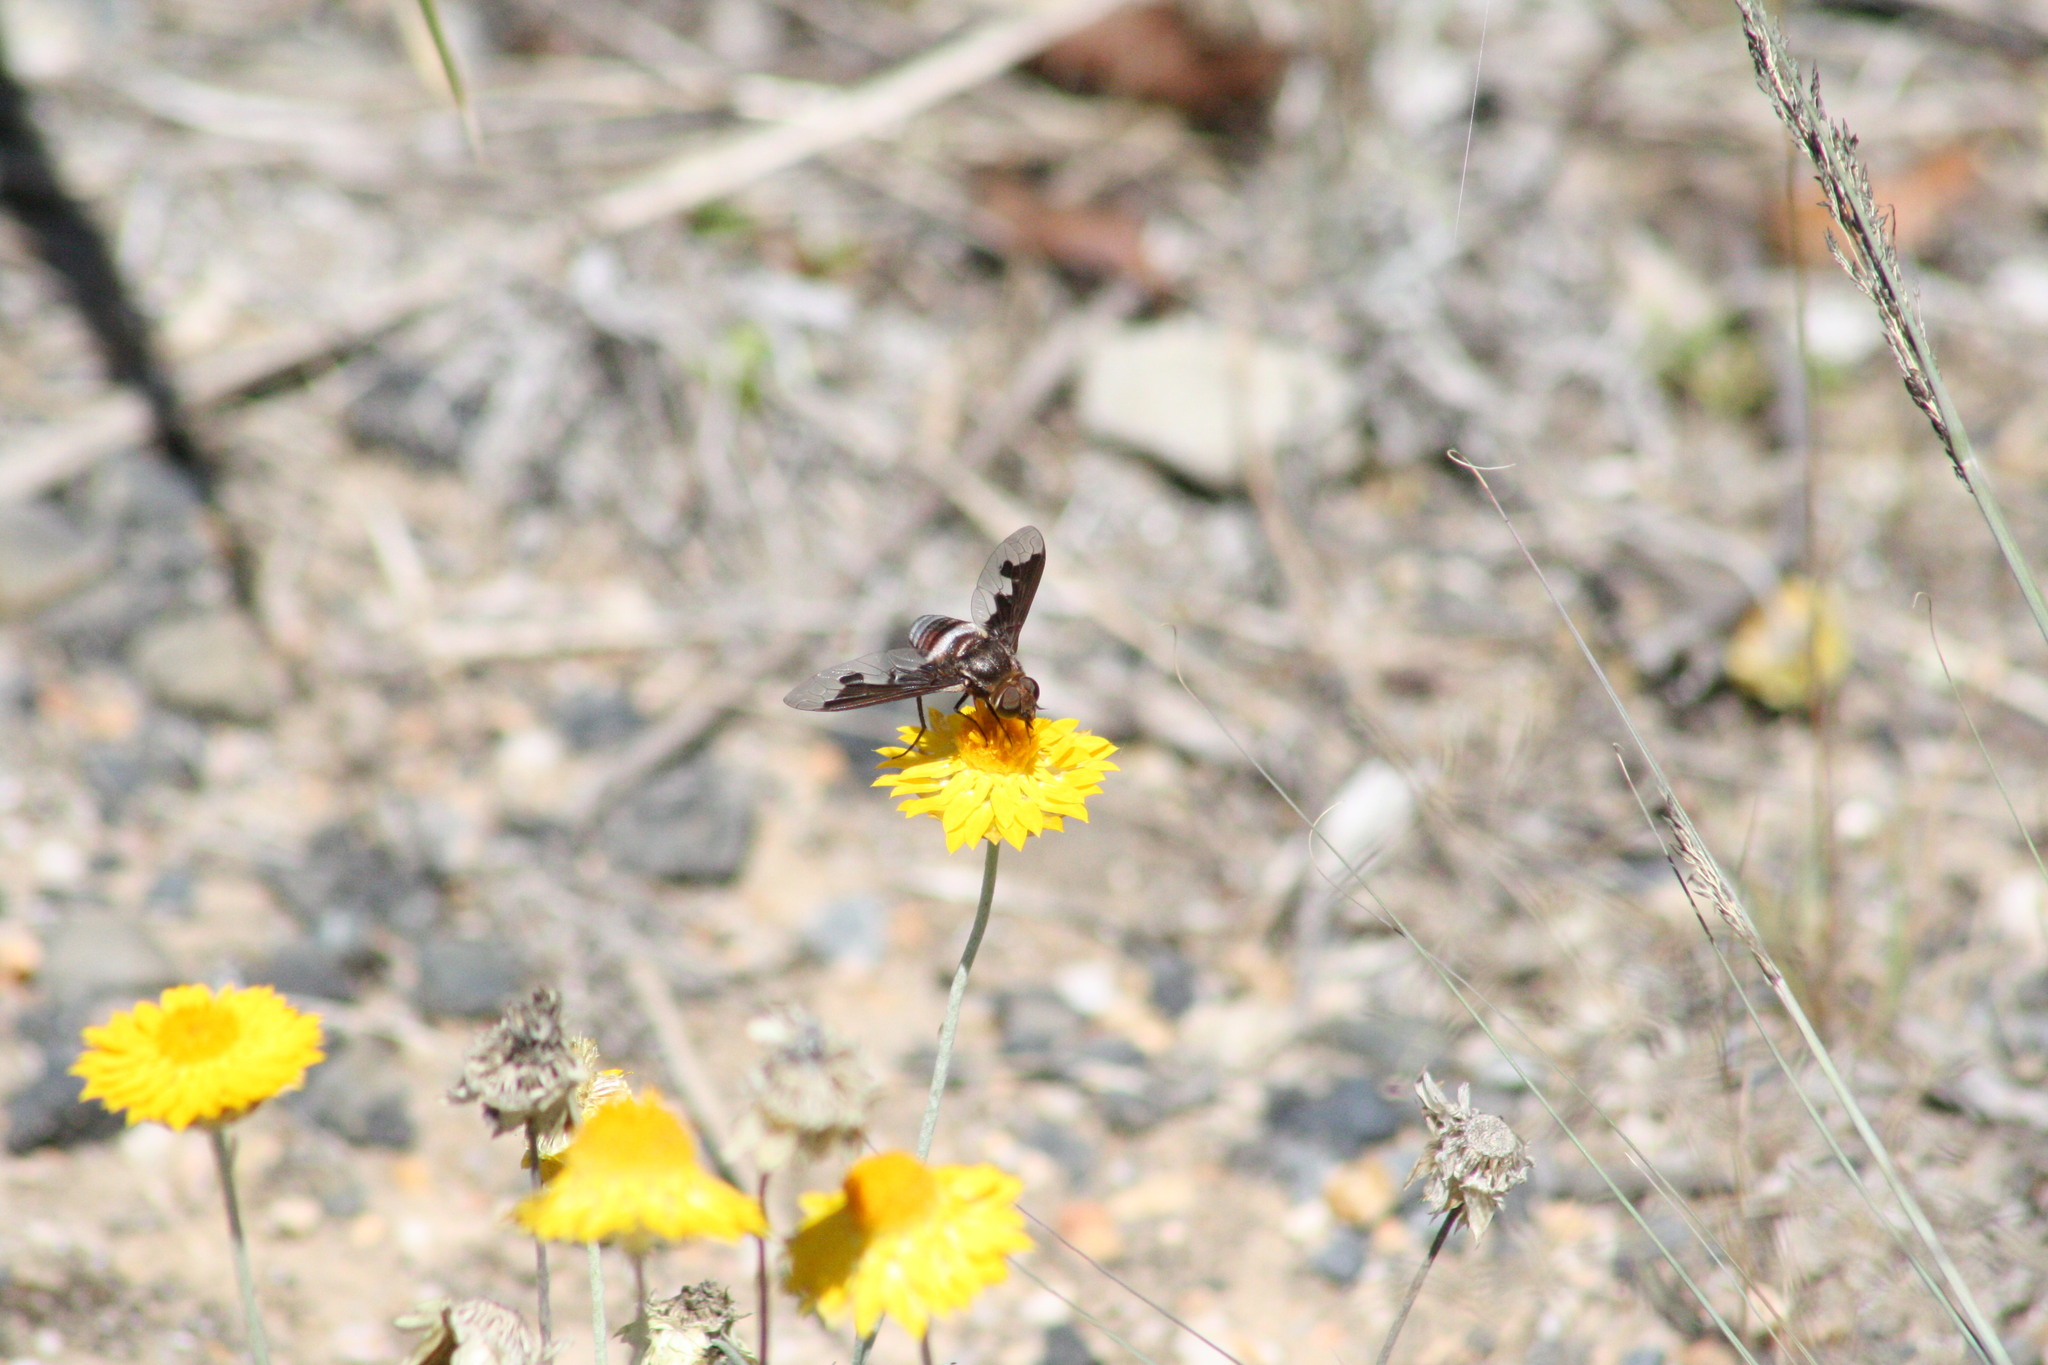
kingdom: Animalia
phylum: Arthropoda
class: Insecta
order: Diptera
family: Bombyliidae
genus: Ligyra
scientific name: Ligyra sinuatifascia
